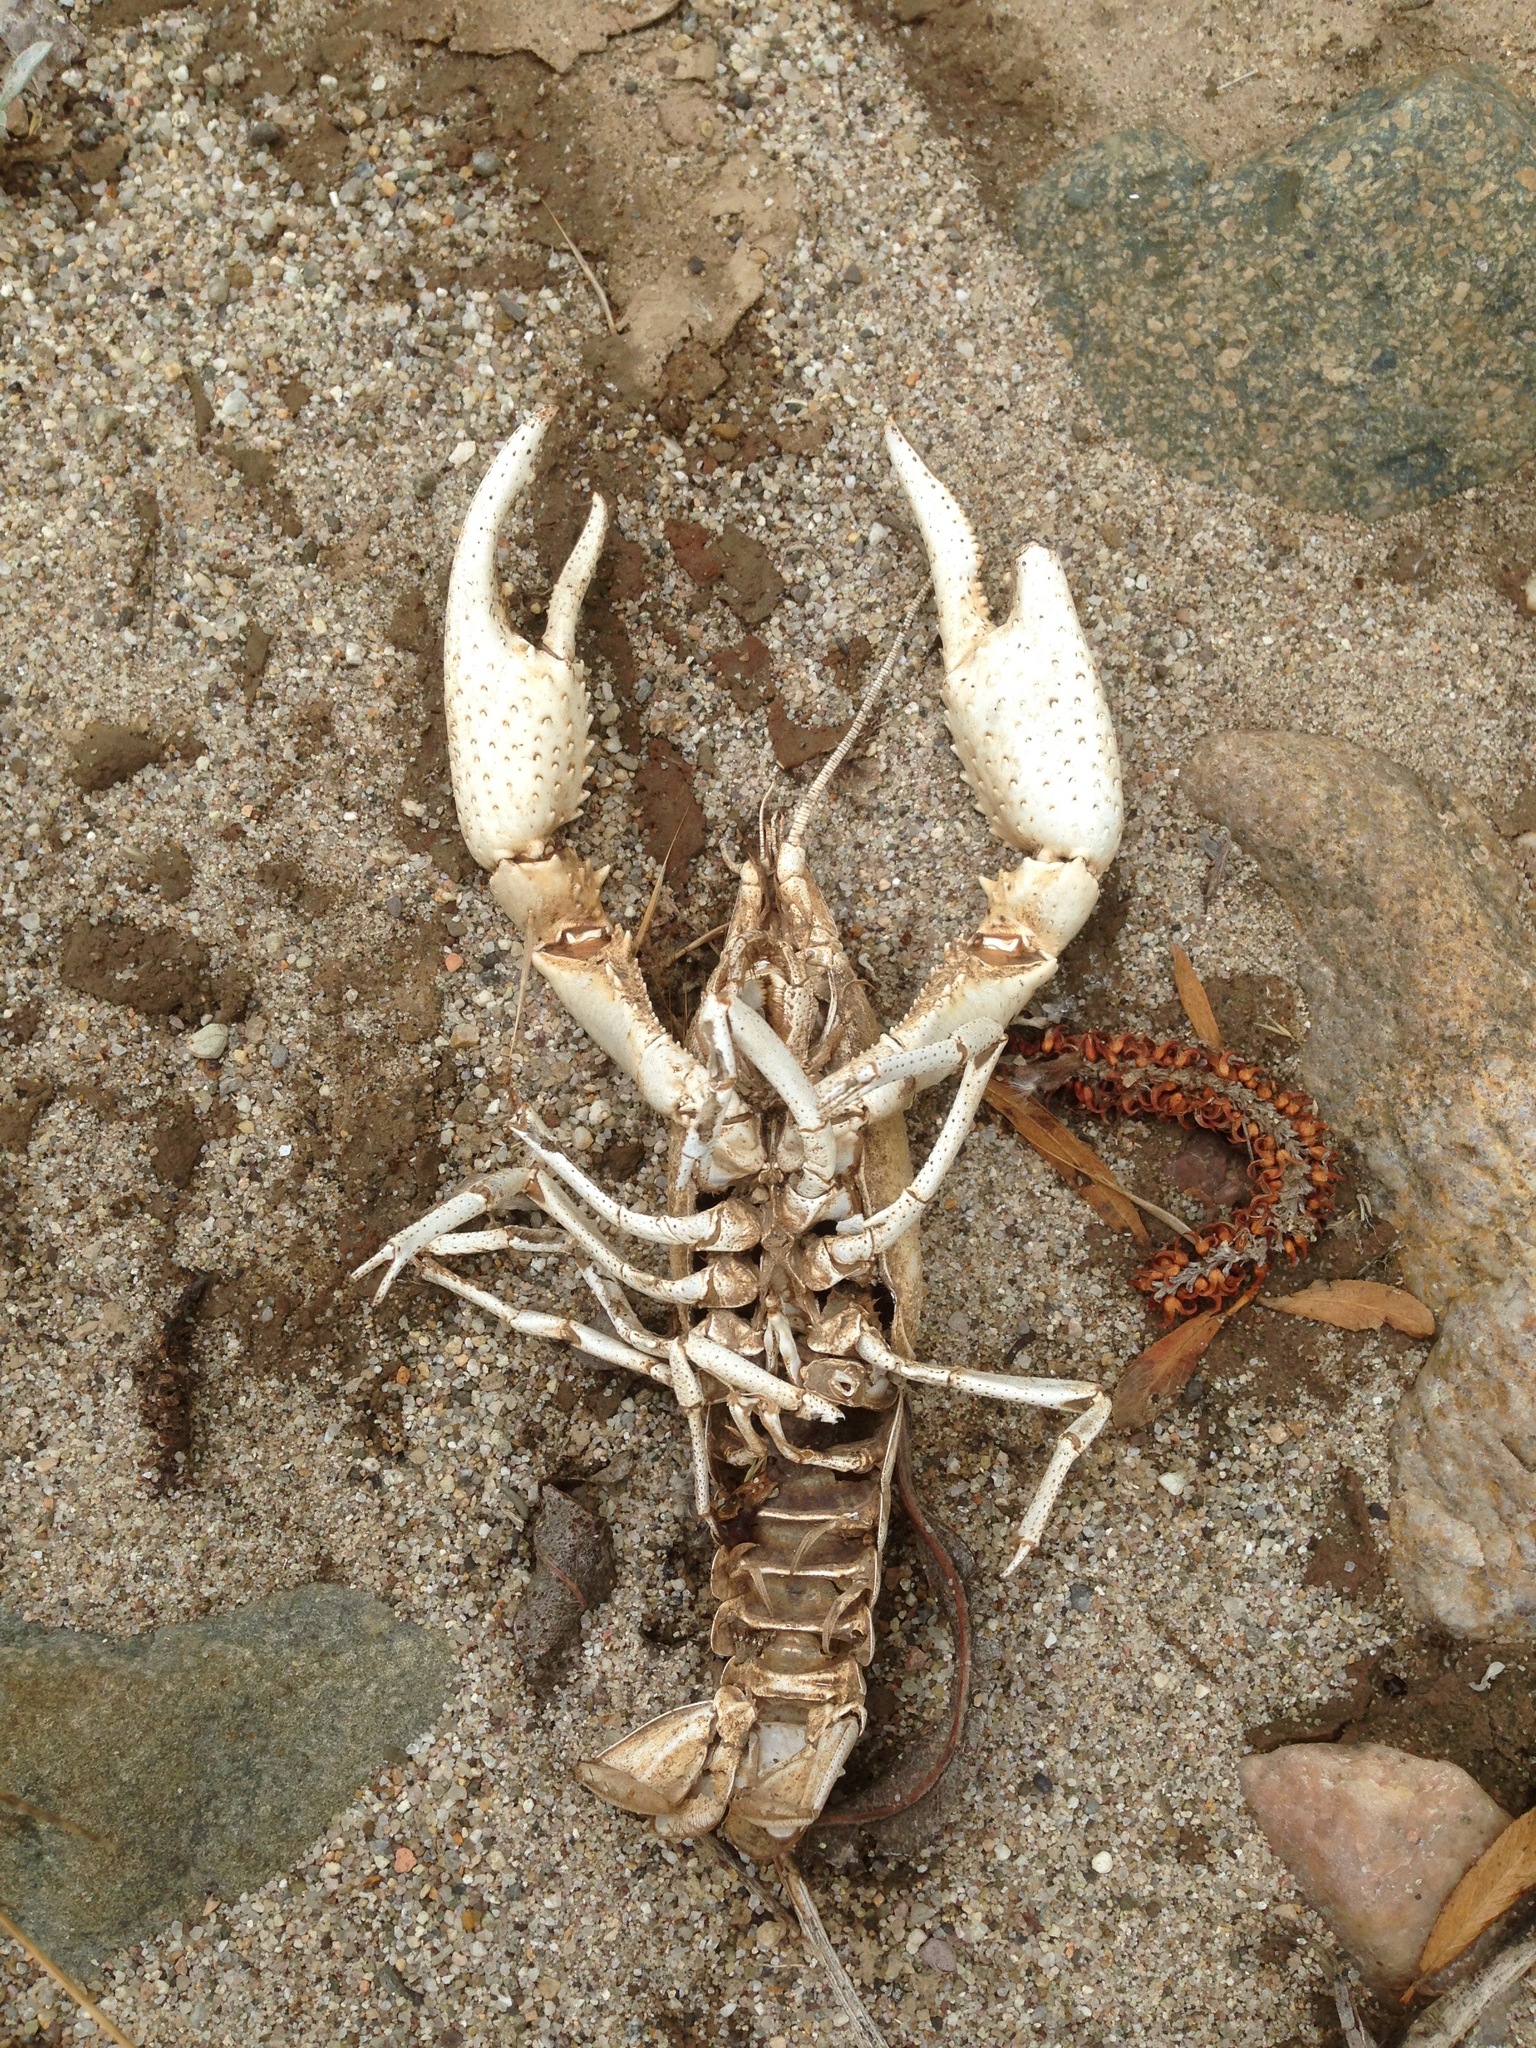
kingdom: Animalia
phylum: Arthropoda
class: Malacostraca
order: Decapoda
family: Cambaridae
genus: Procambarus
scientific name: Procambarus clarkii
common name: Red swamp crayfish
